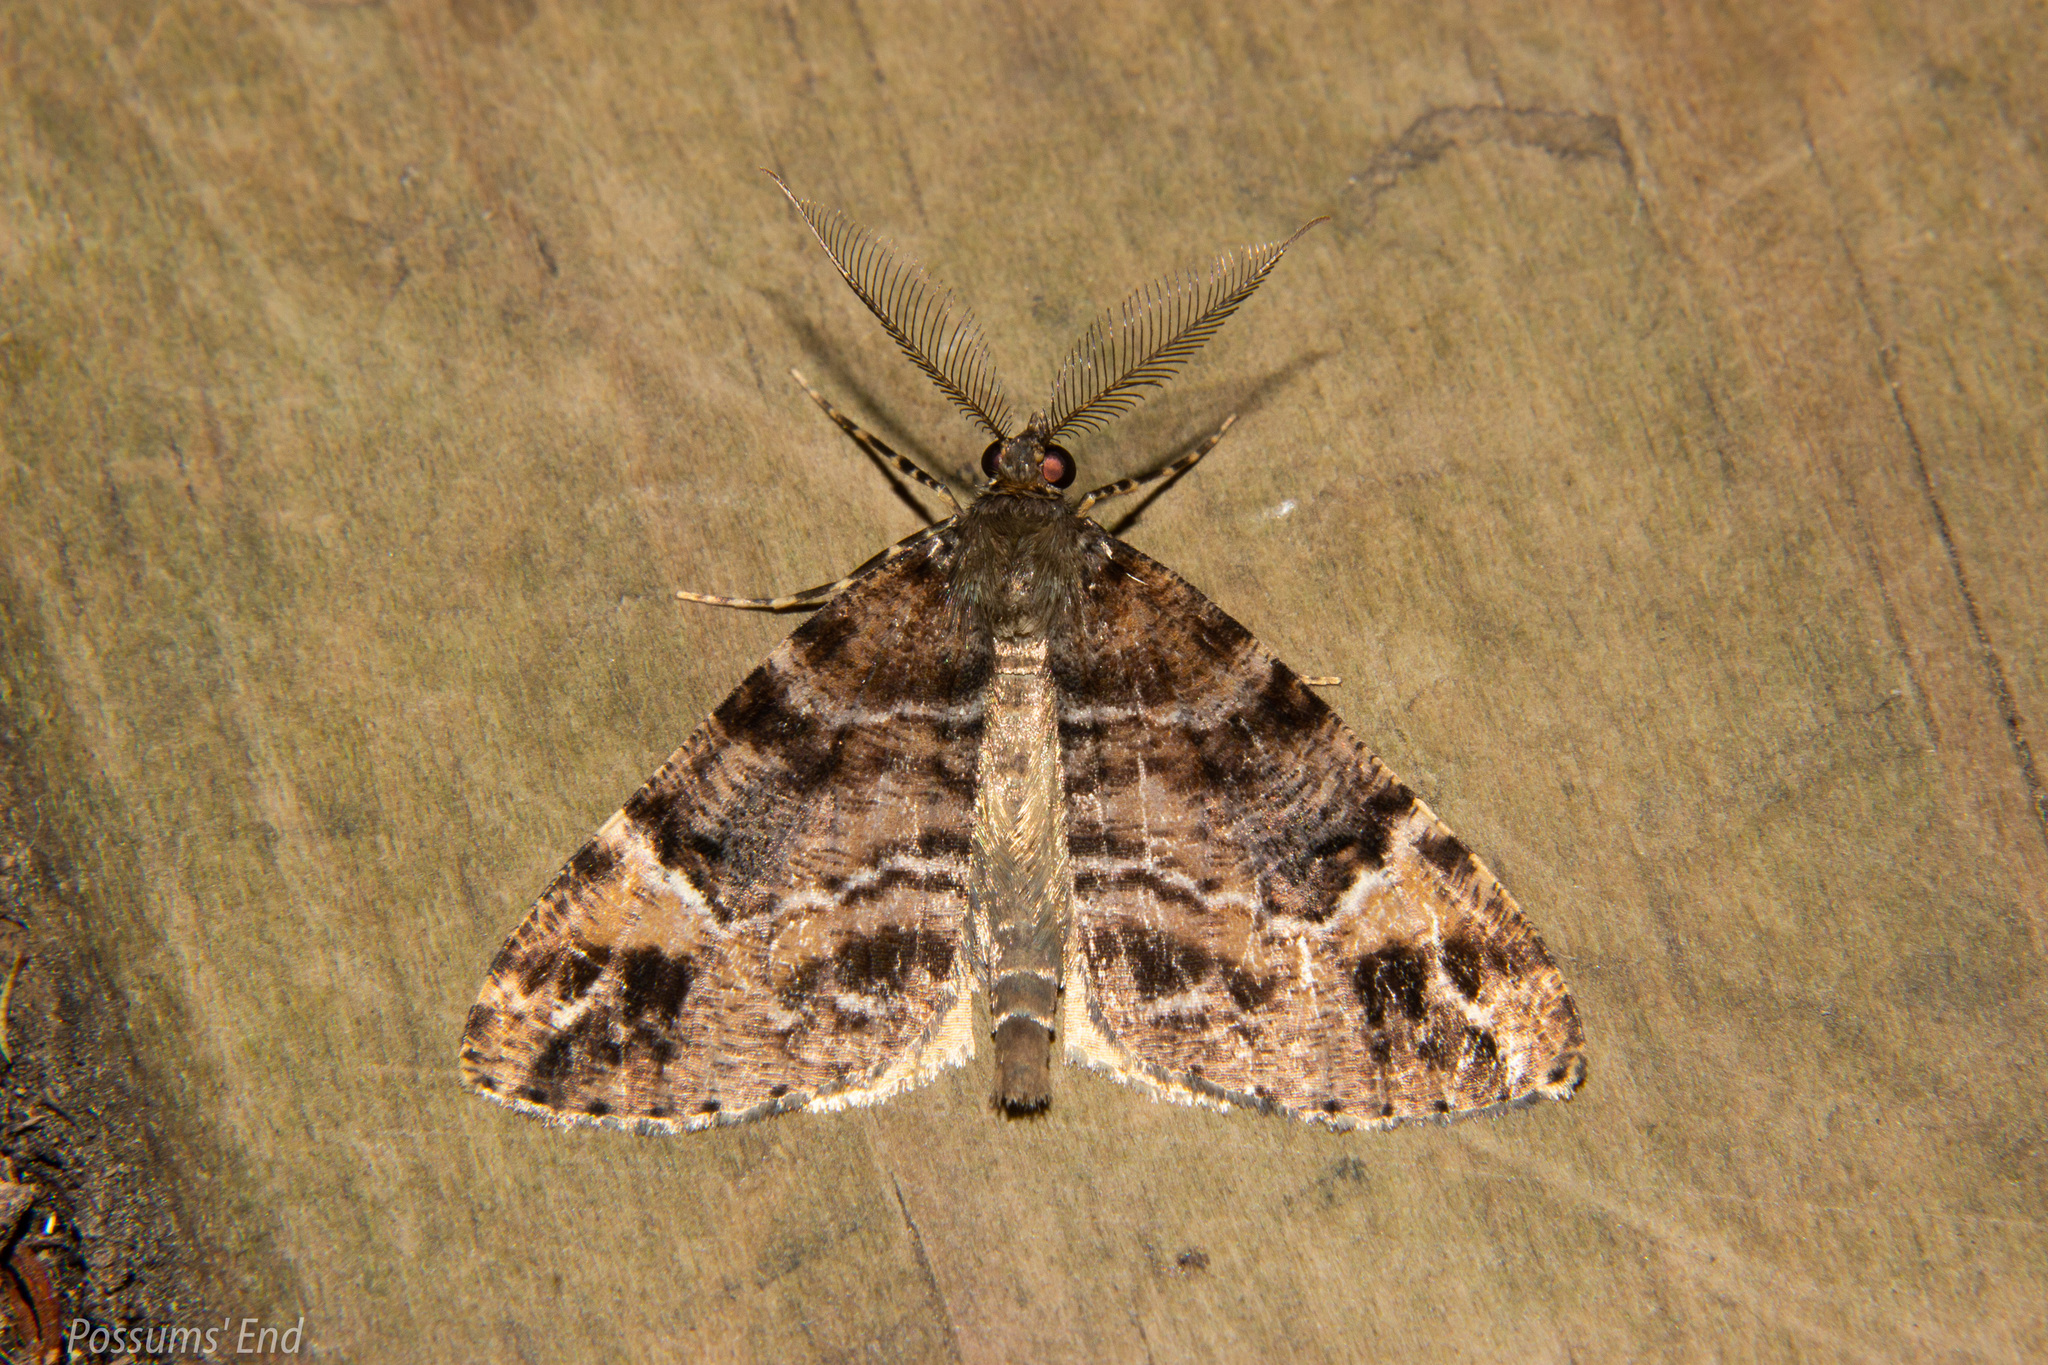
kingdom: Animalia
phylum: Arthropoda
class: Insecta
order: Lepidoptera
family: Geometridae
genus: Pseudocoremia
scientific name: Pseudocoremia productata
